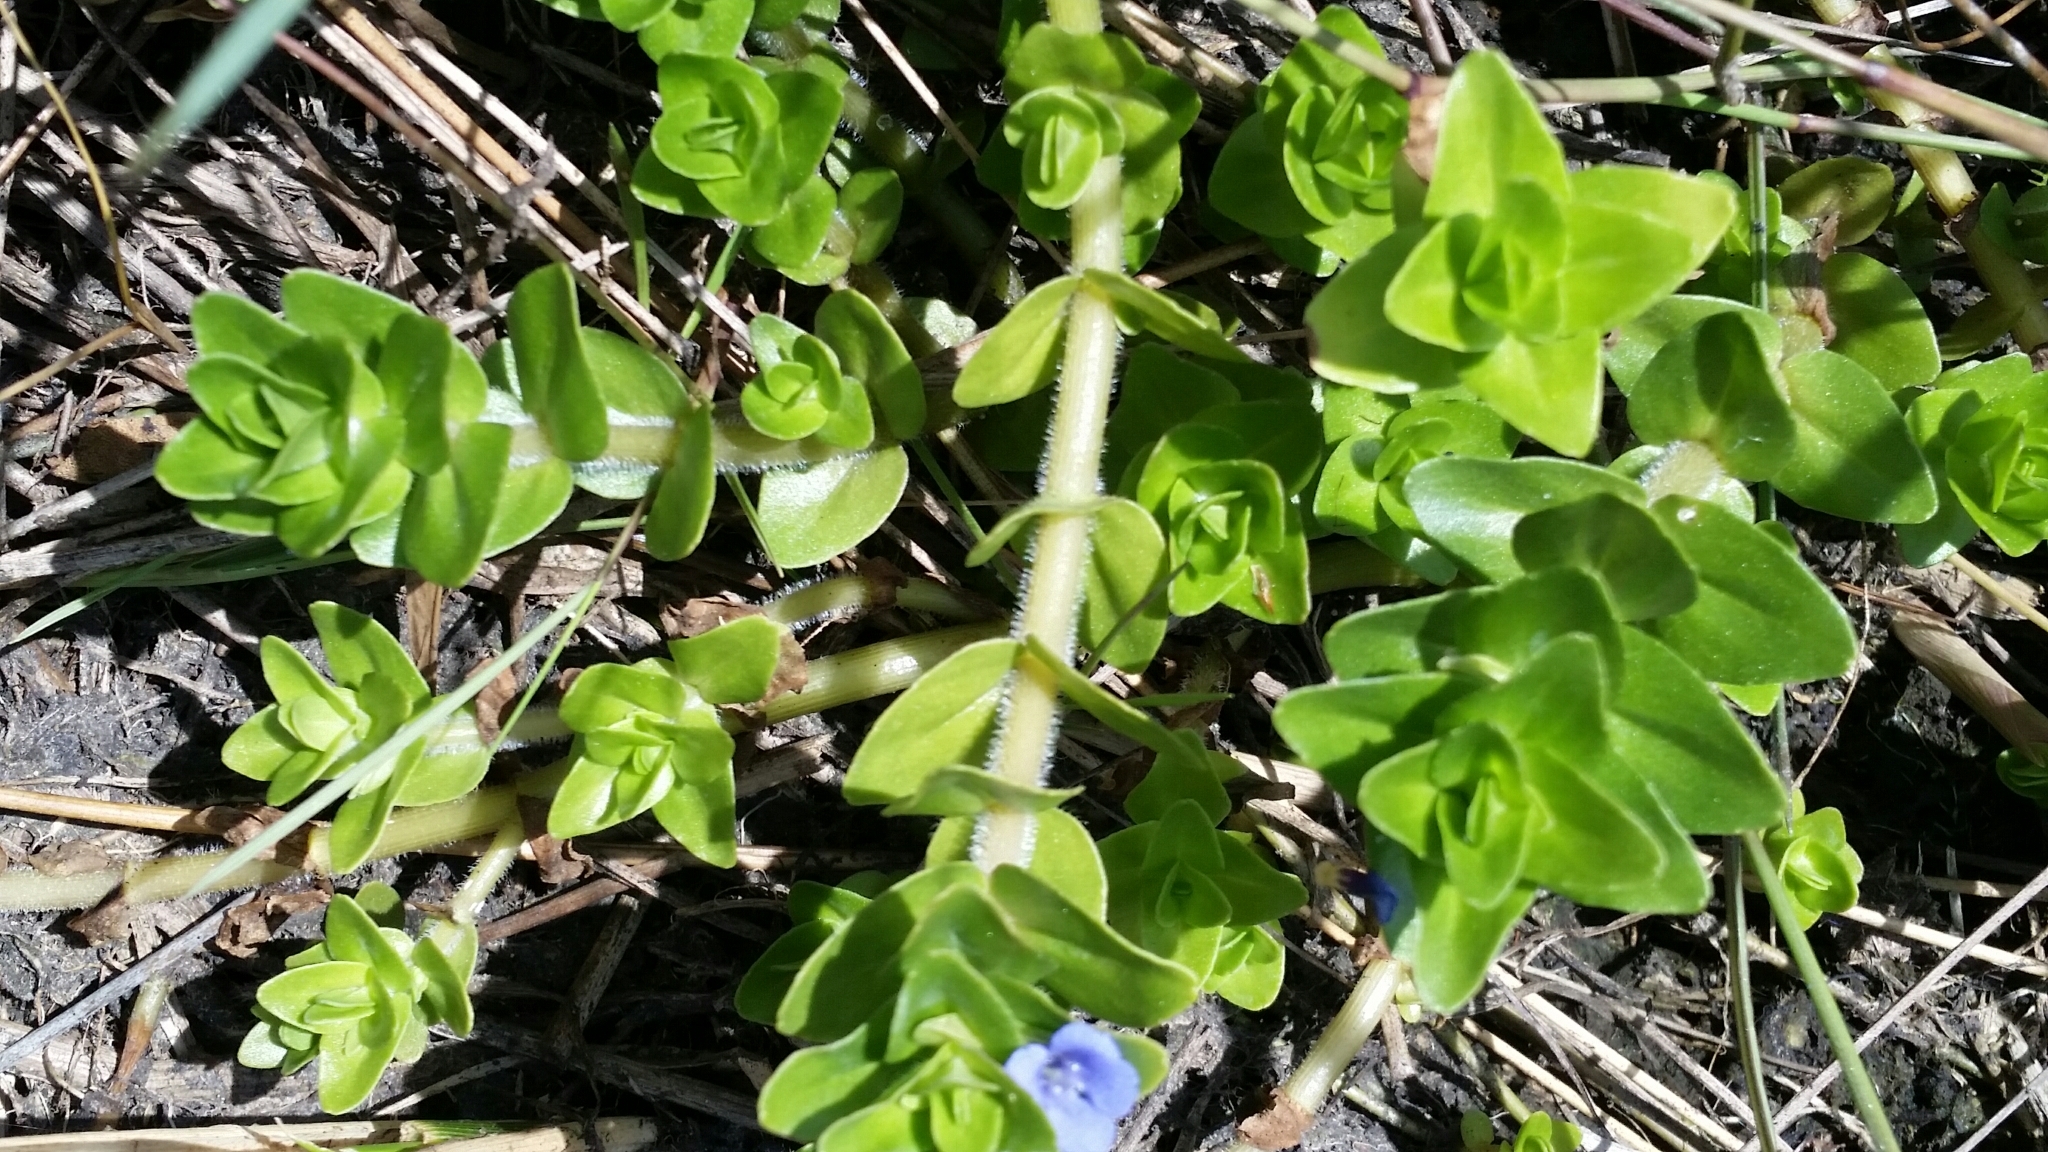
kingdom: Plantae
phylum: Tracheophyta
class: Magnoliopsida
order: Lamiales
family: Plantaginaceae
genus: Bacopa
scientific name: Bacopa caroliniana
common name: Lemon bacopa
